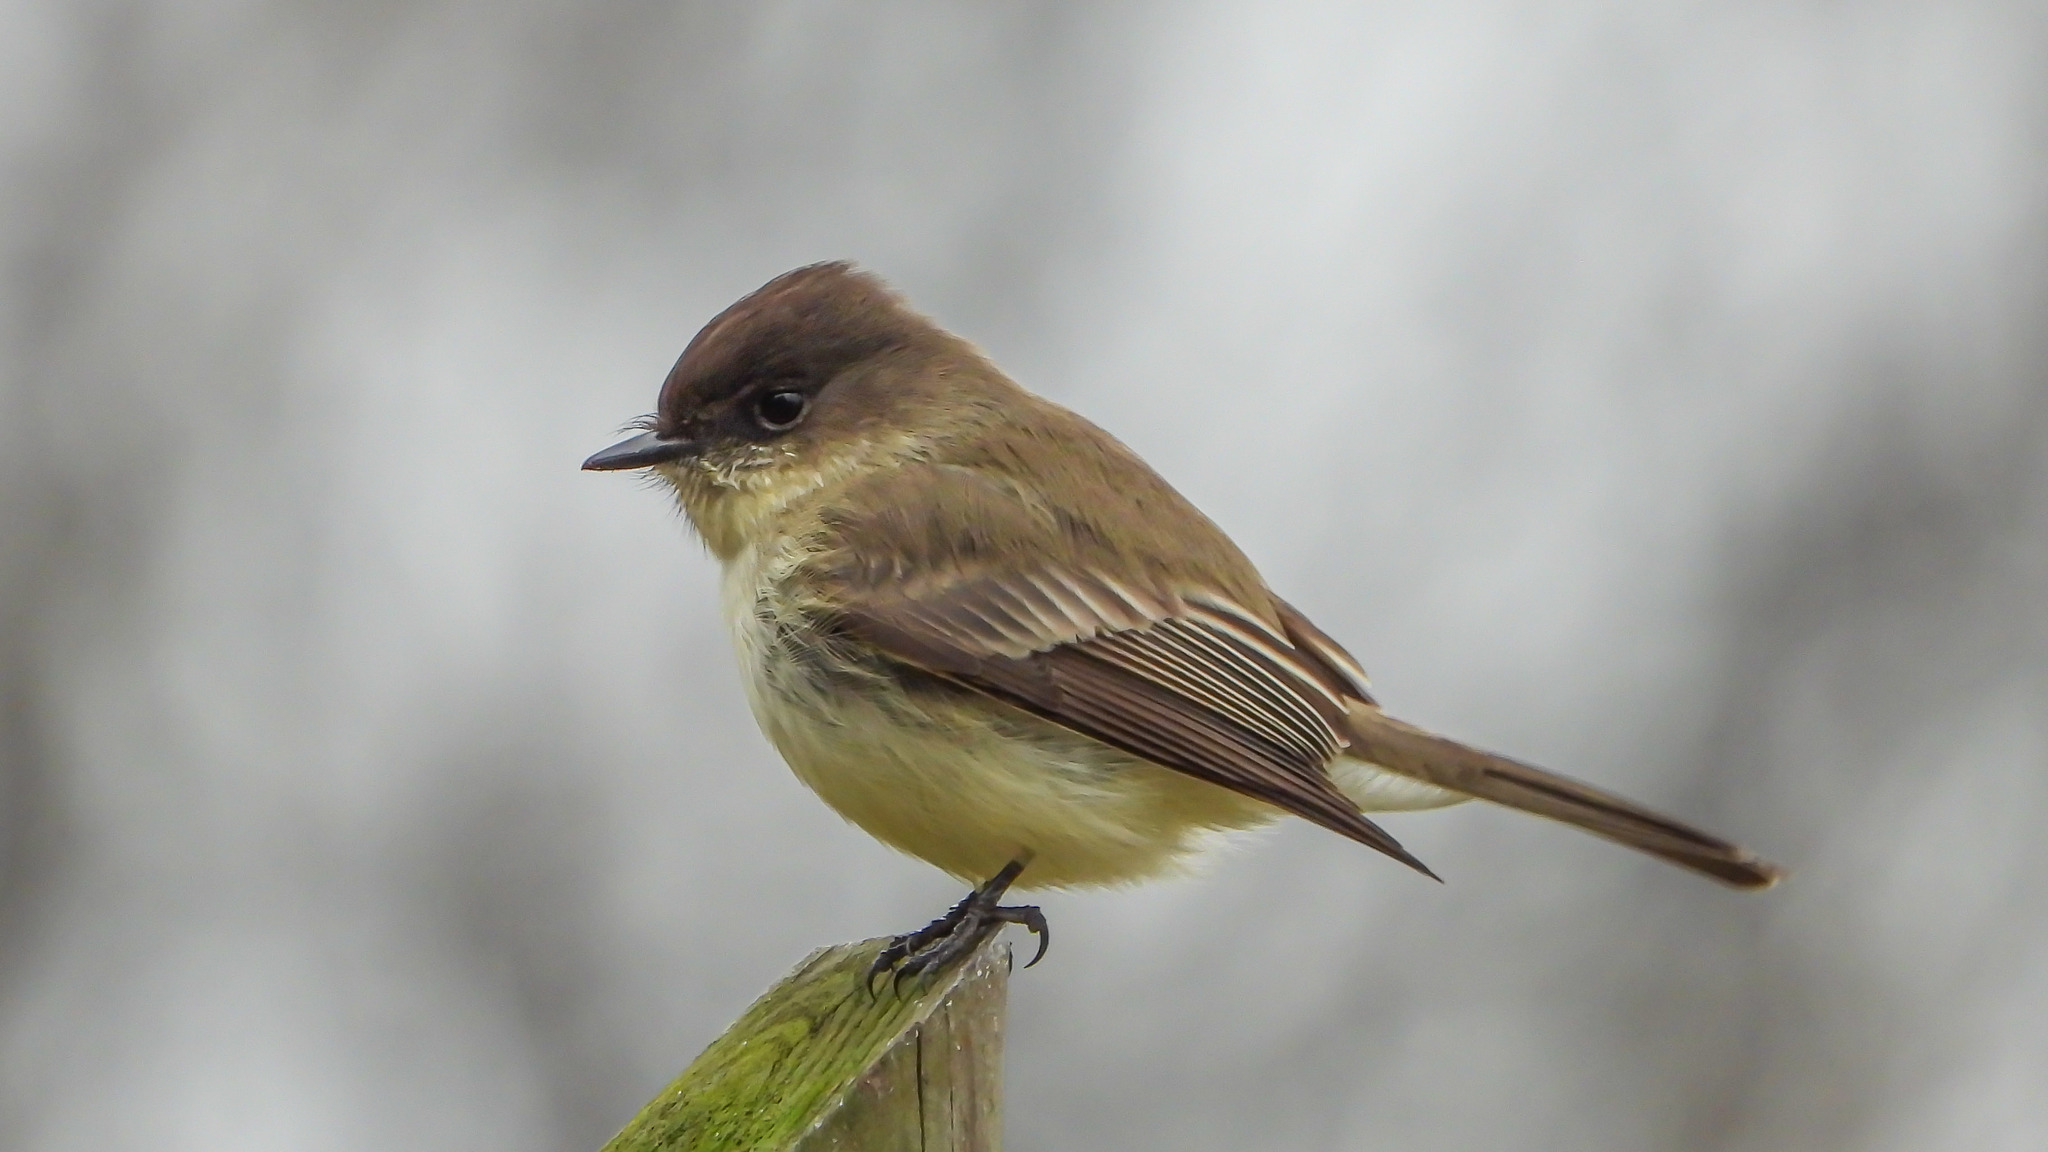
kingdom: Animalia
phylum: Chordata
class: Aves
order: Passeriformes
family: Tyrannidae
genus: Sayornis
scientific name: Sayornis phoebe
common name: Eastern phoebe
